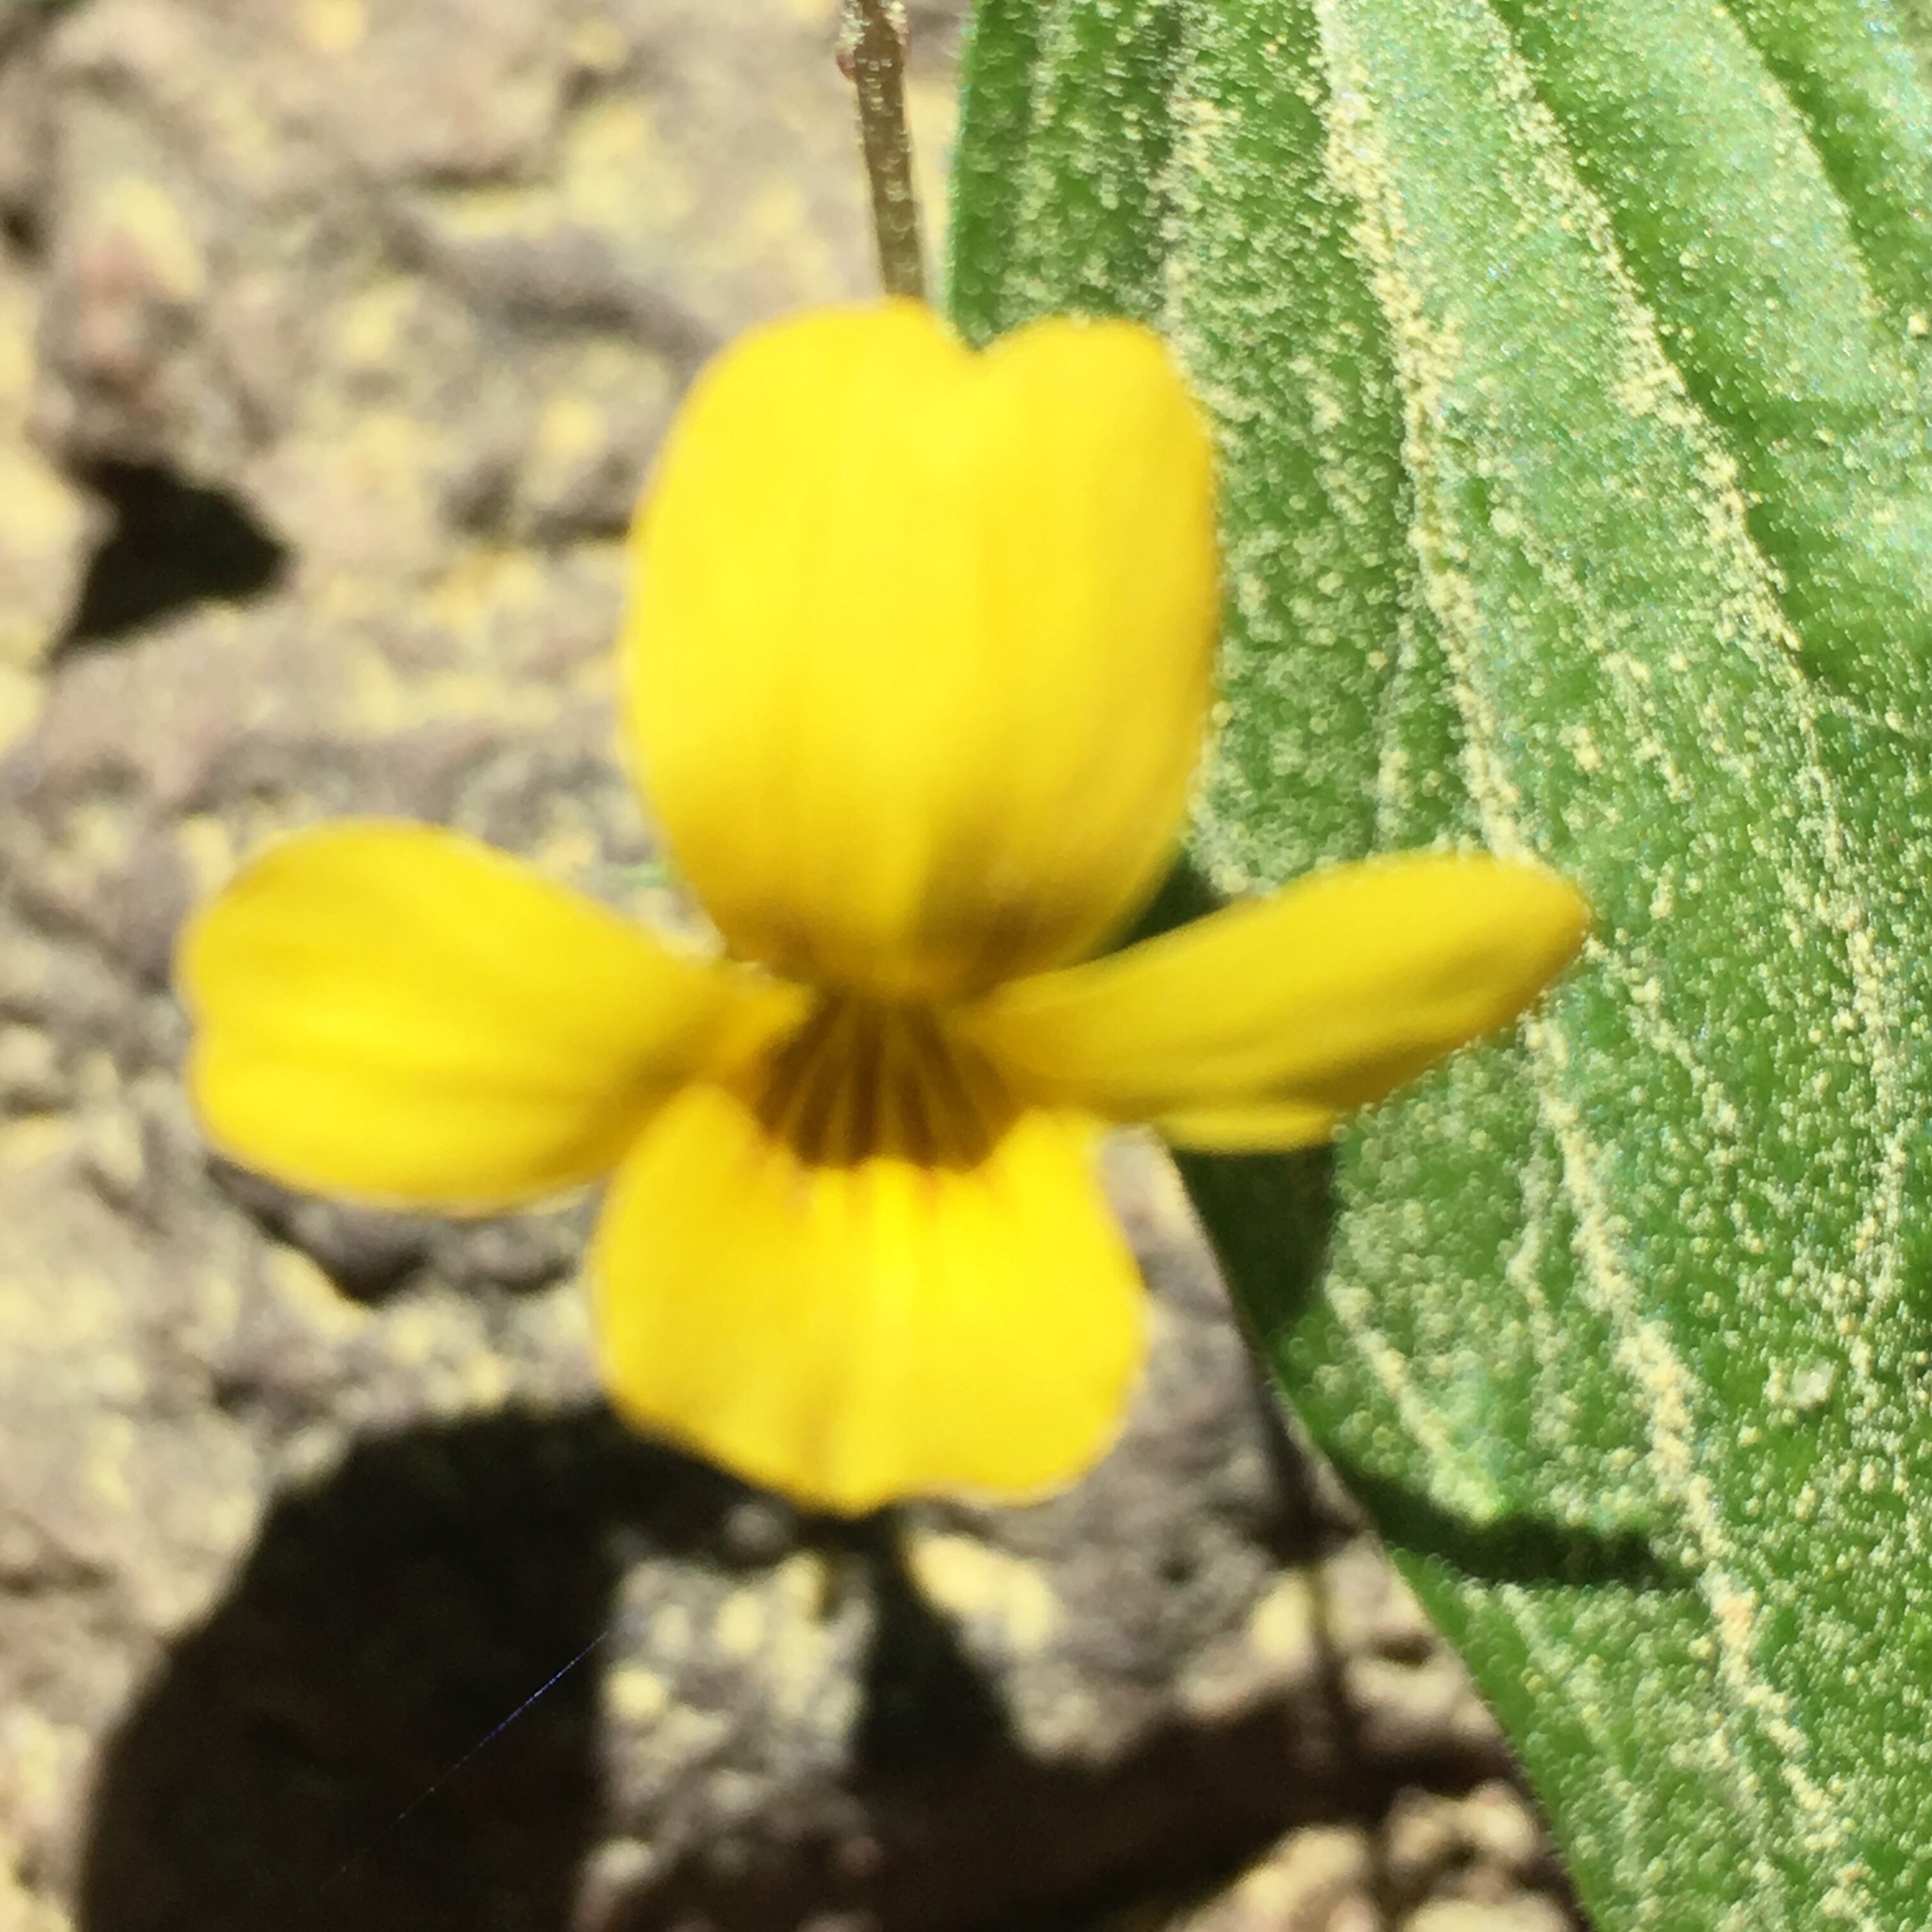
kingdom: Plantae
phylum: Tracheophyta
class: Magnoliopsida
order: Malpighiales
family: Violaceae
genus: Viola
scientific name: Viola purpurea
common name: Pine violet
